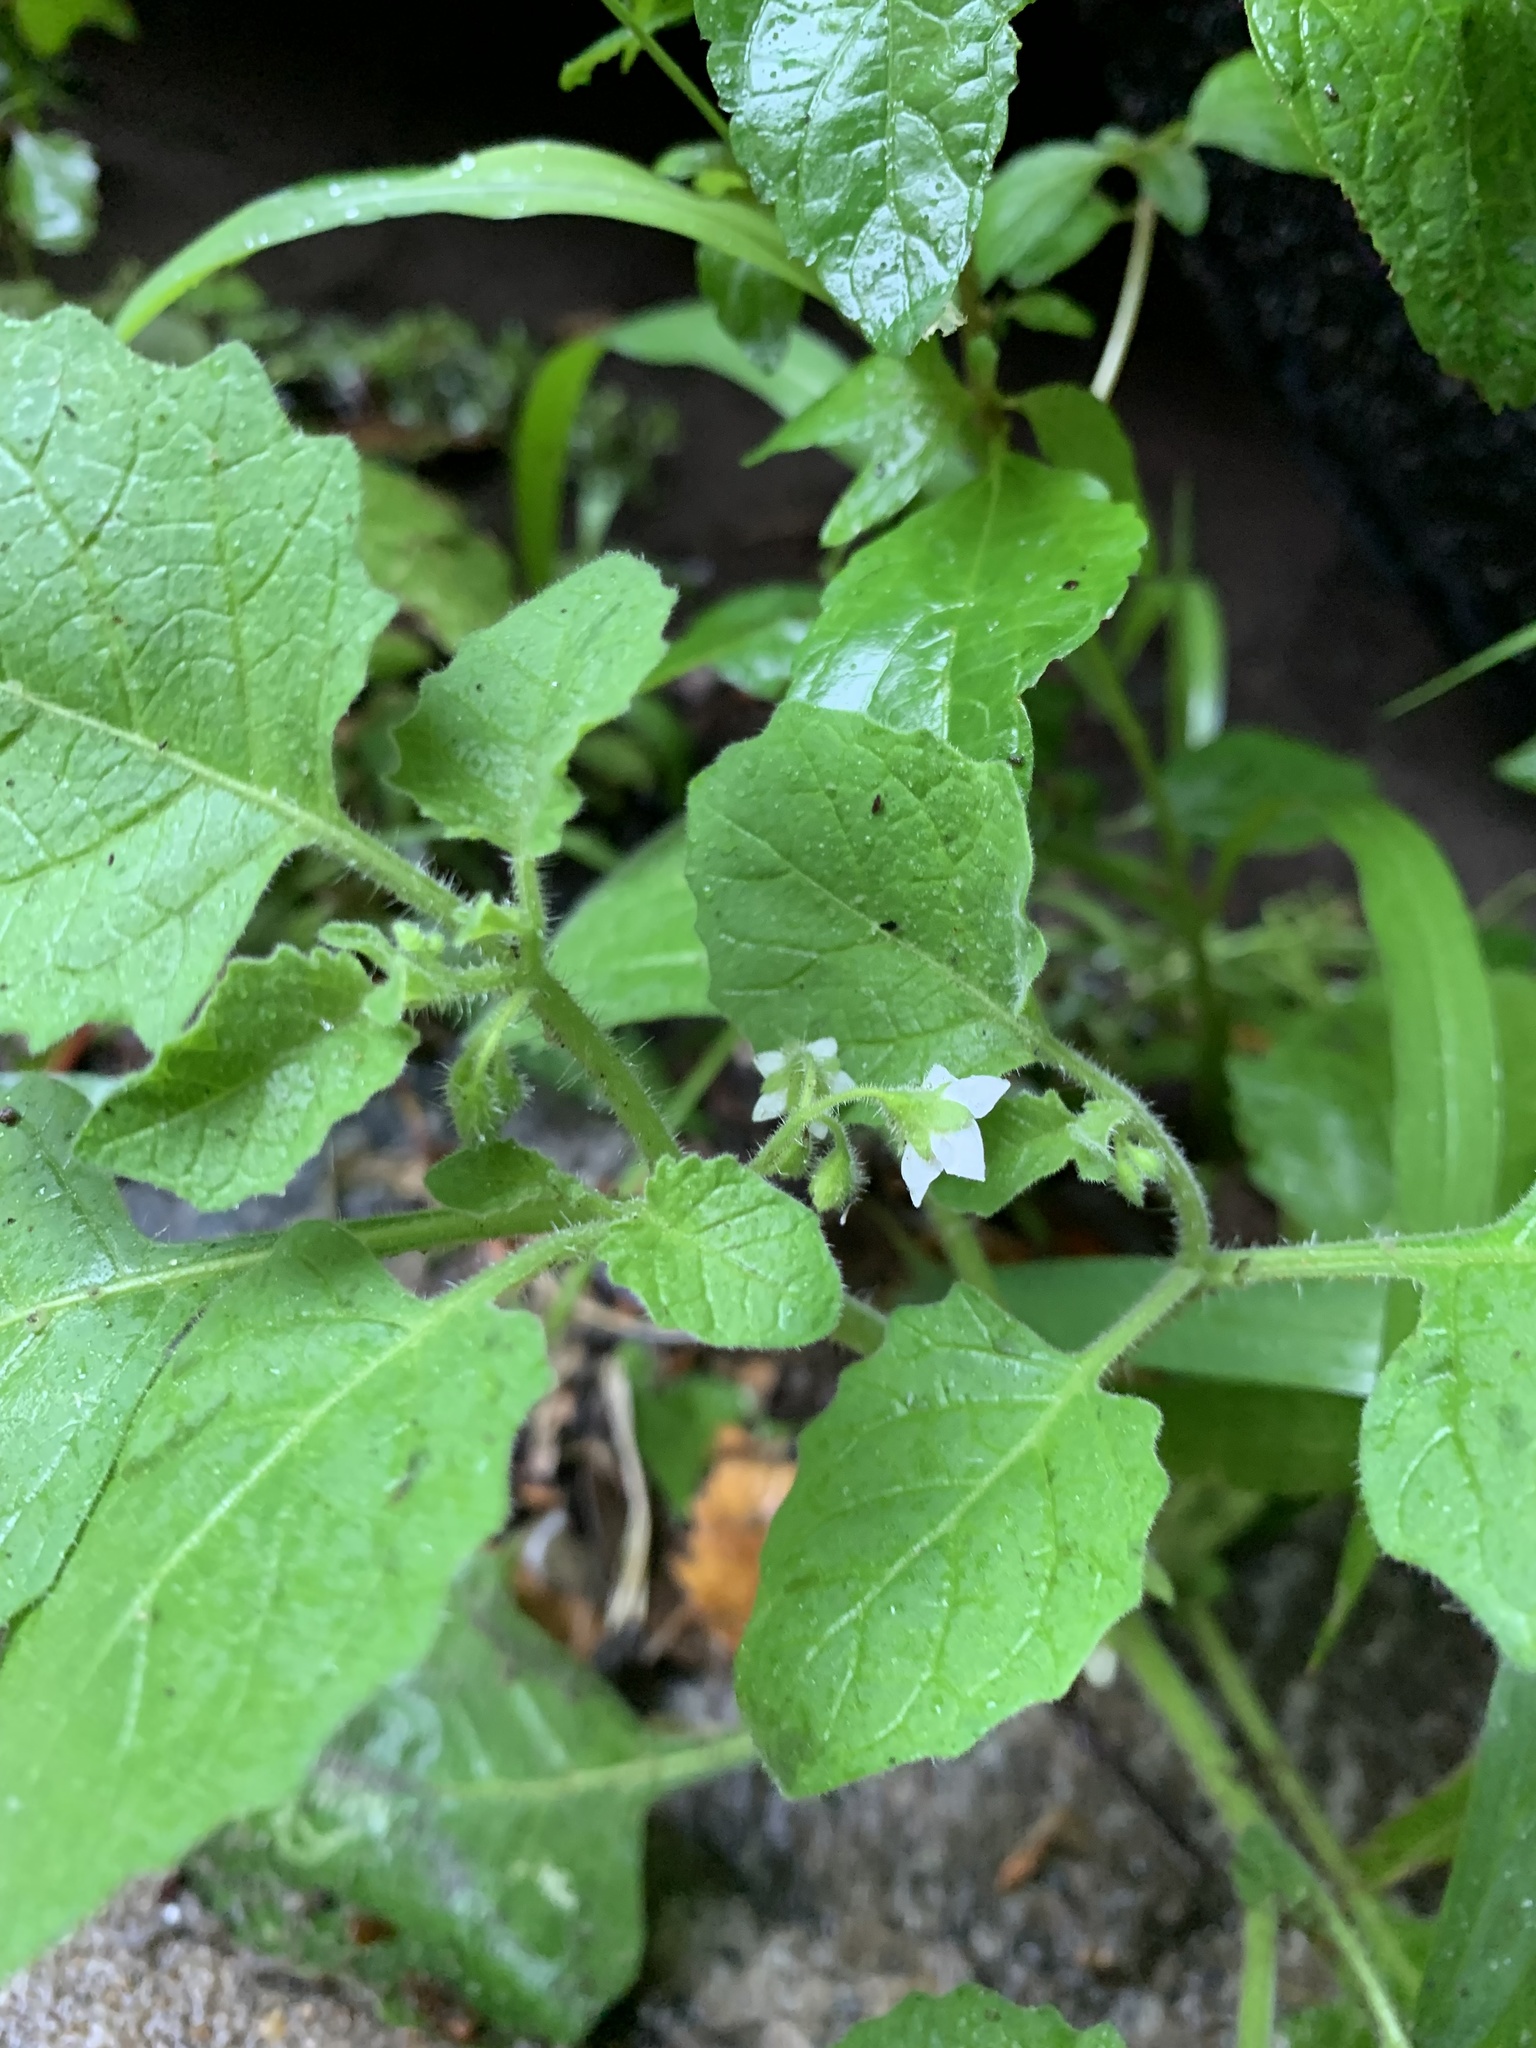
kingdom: Plantae
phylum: Tracheophyta
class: Magnoliopsida
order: Solanales
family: Solanaceae
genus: Solanum
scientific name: Solanum sarrachoides
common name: Leafy-fruited nightshade
